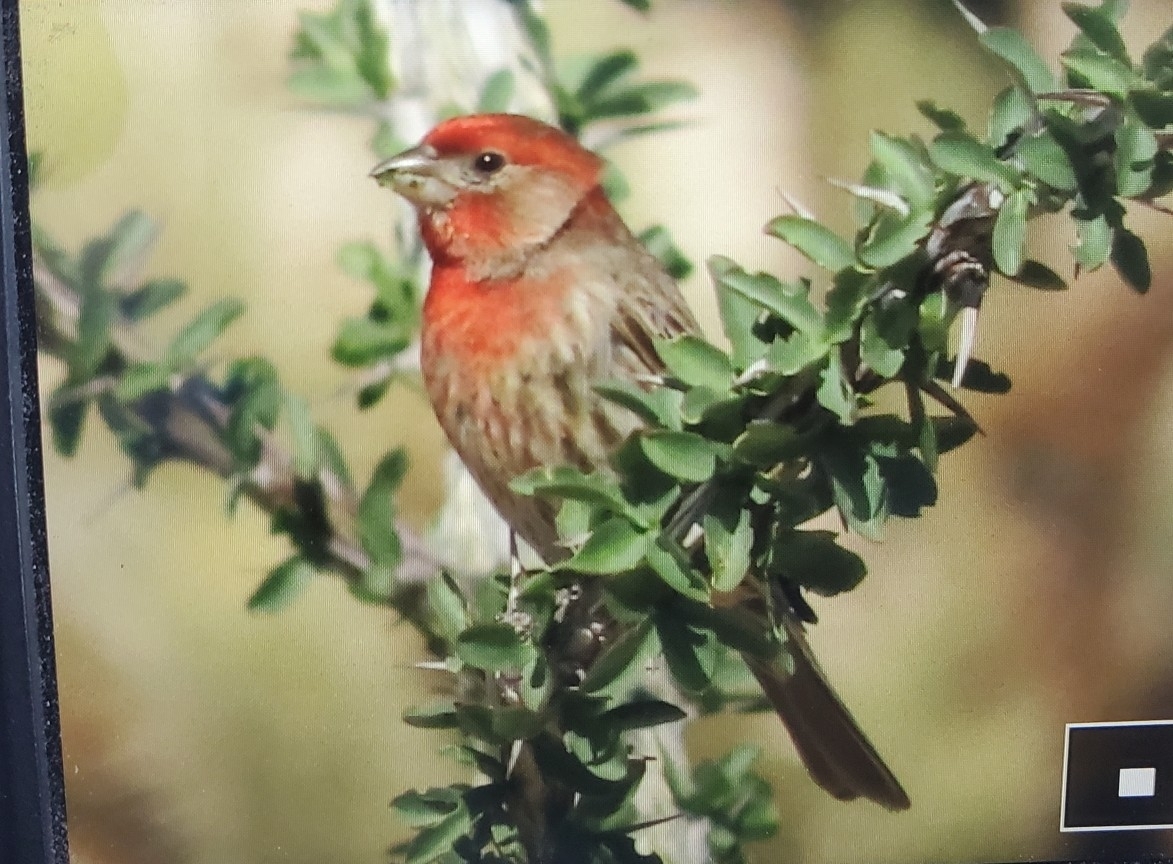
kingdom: Animalia
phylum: Chordata
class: Aves
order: Passeriformes
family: Fringillidae
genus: Haemorhous
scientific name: Haemorhous mexicanus
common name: House finch
